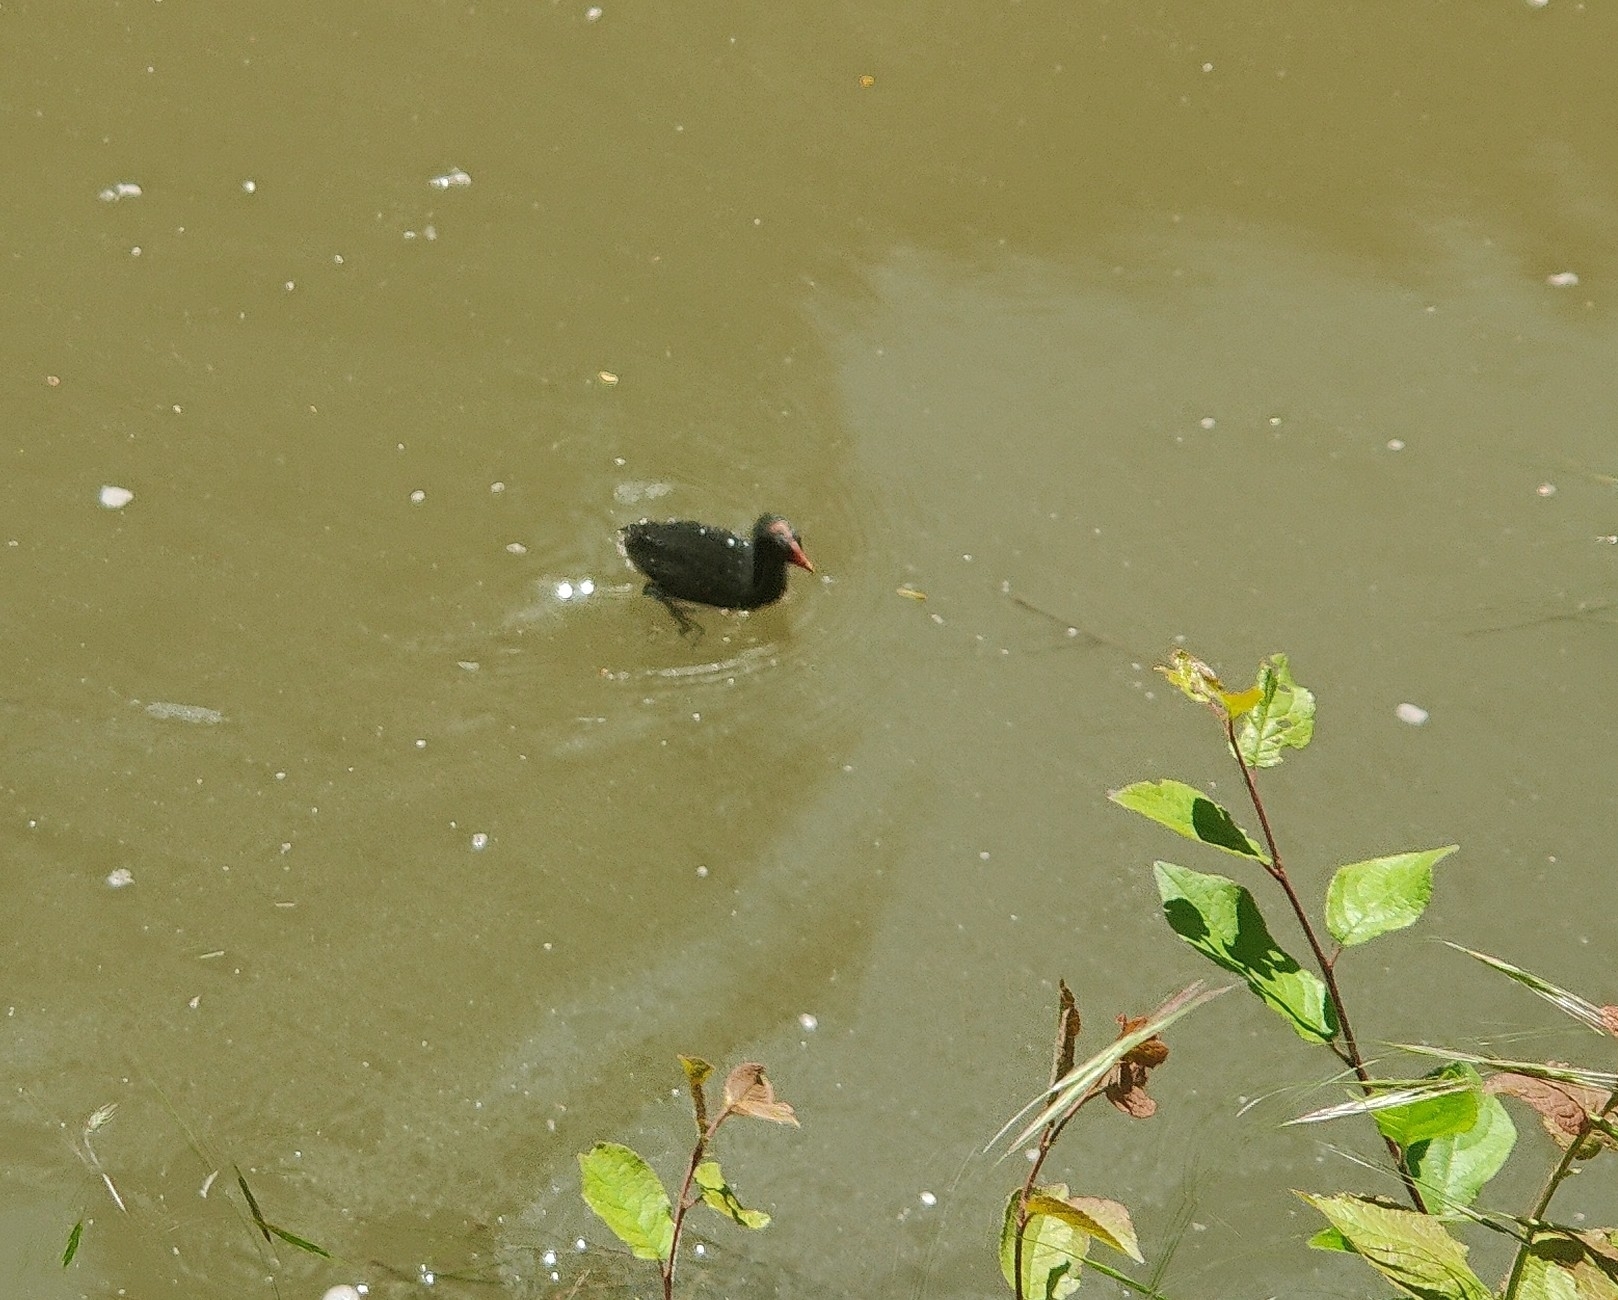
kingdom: Animalia
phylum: Chordata
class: Aves
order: Gruiformes
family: Rallidae
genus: Gallinula
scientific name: Gallinula chloropus
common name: Common moorhen
